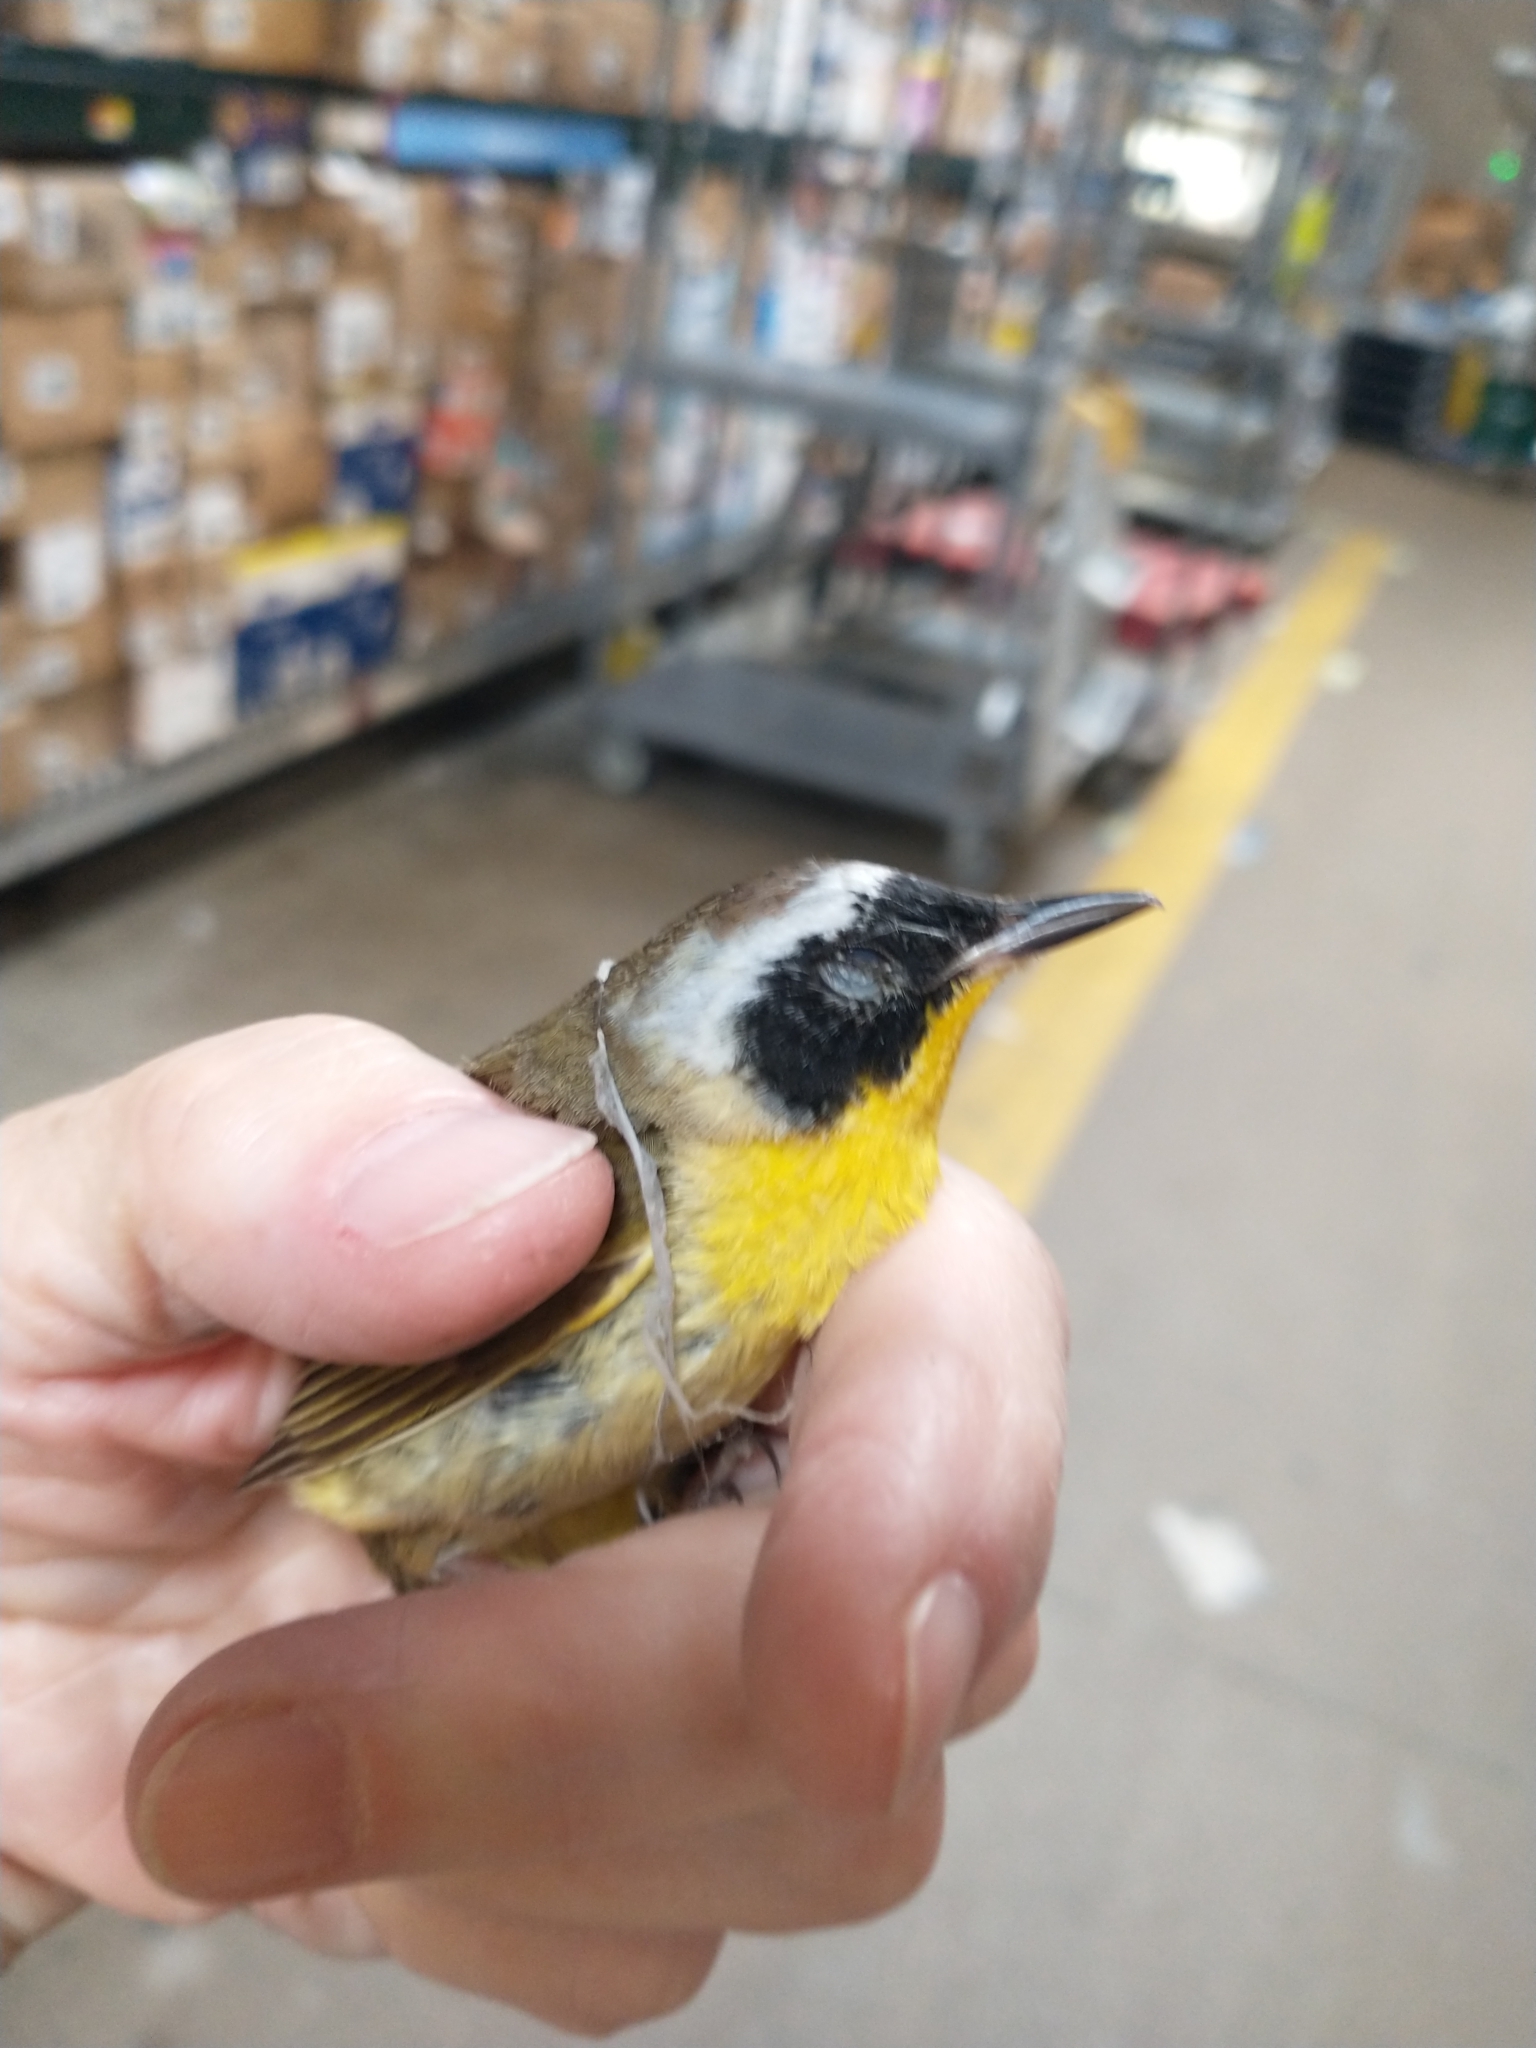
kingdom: Animalia
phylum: Chordata
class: Aves
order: Passeriformes
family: Parulidae
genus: Geothlypis
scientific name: Geothlypis trichas
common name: Common yellowthroat
